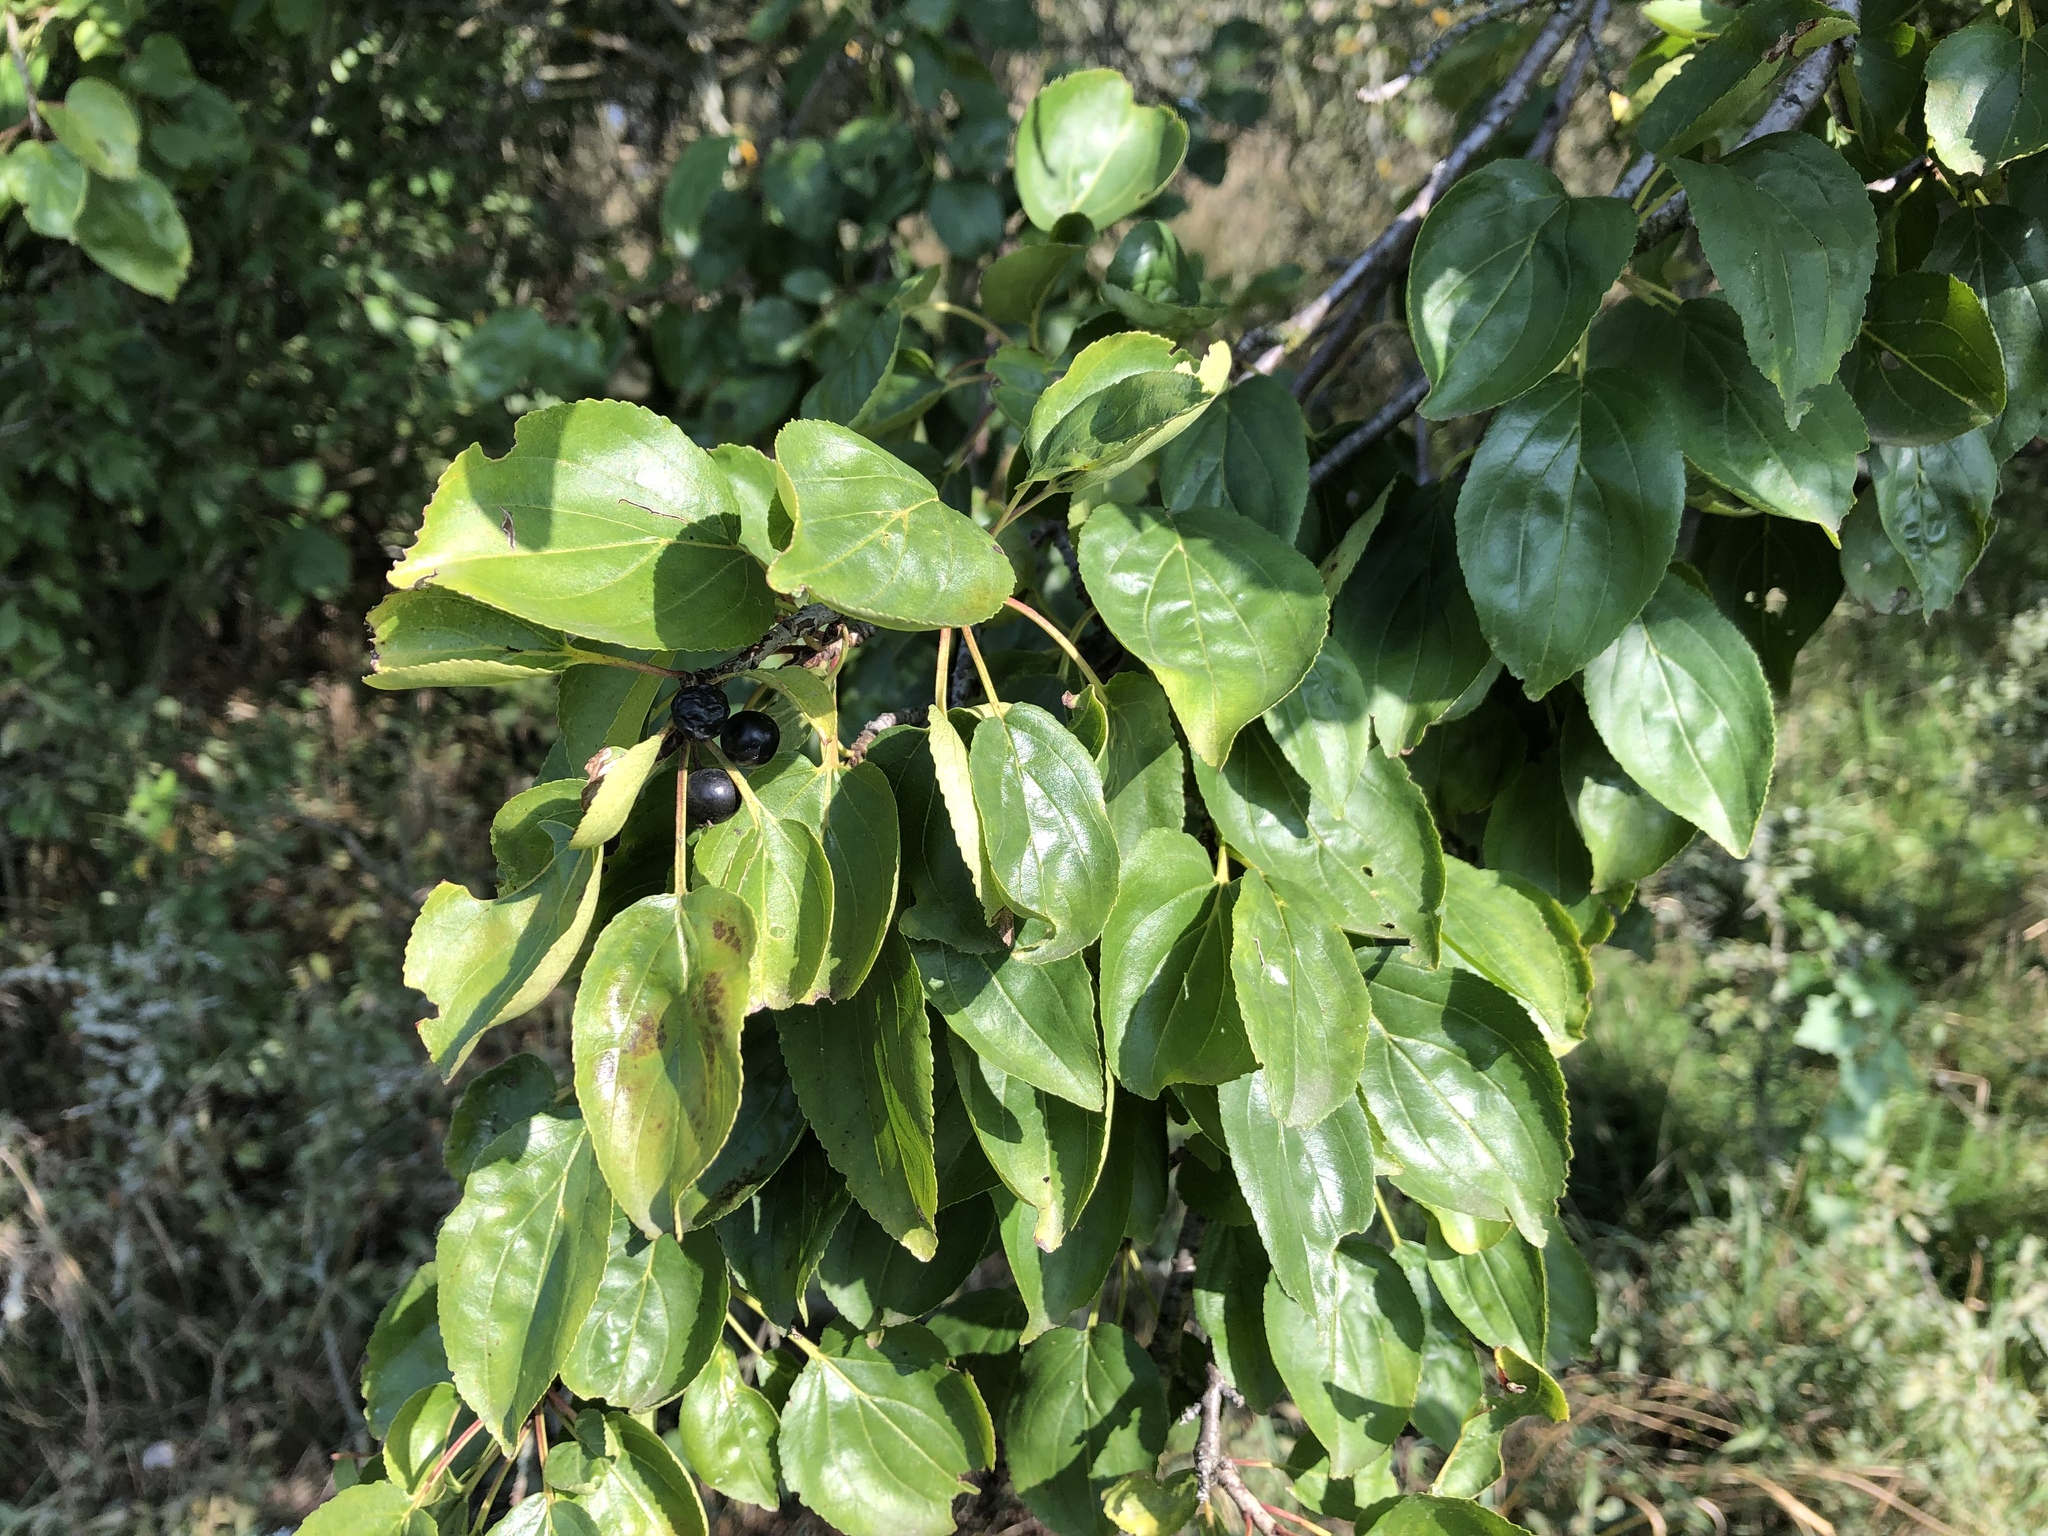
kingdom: Plantae
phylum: Tracheophyta
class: Magnoliopsida
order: Rosales
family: Rhamnaceae
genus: Rhamnus
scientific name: Rhamnus cathartica
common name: Common buckthorn
